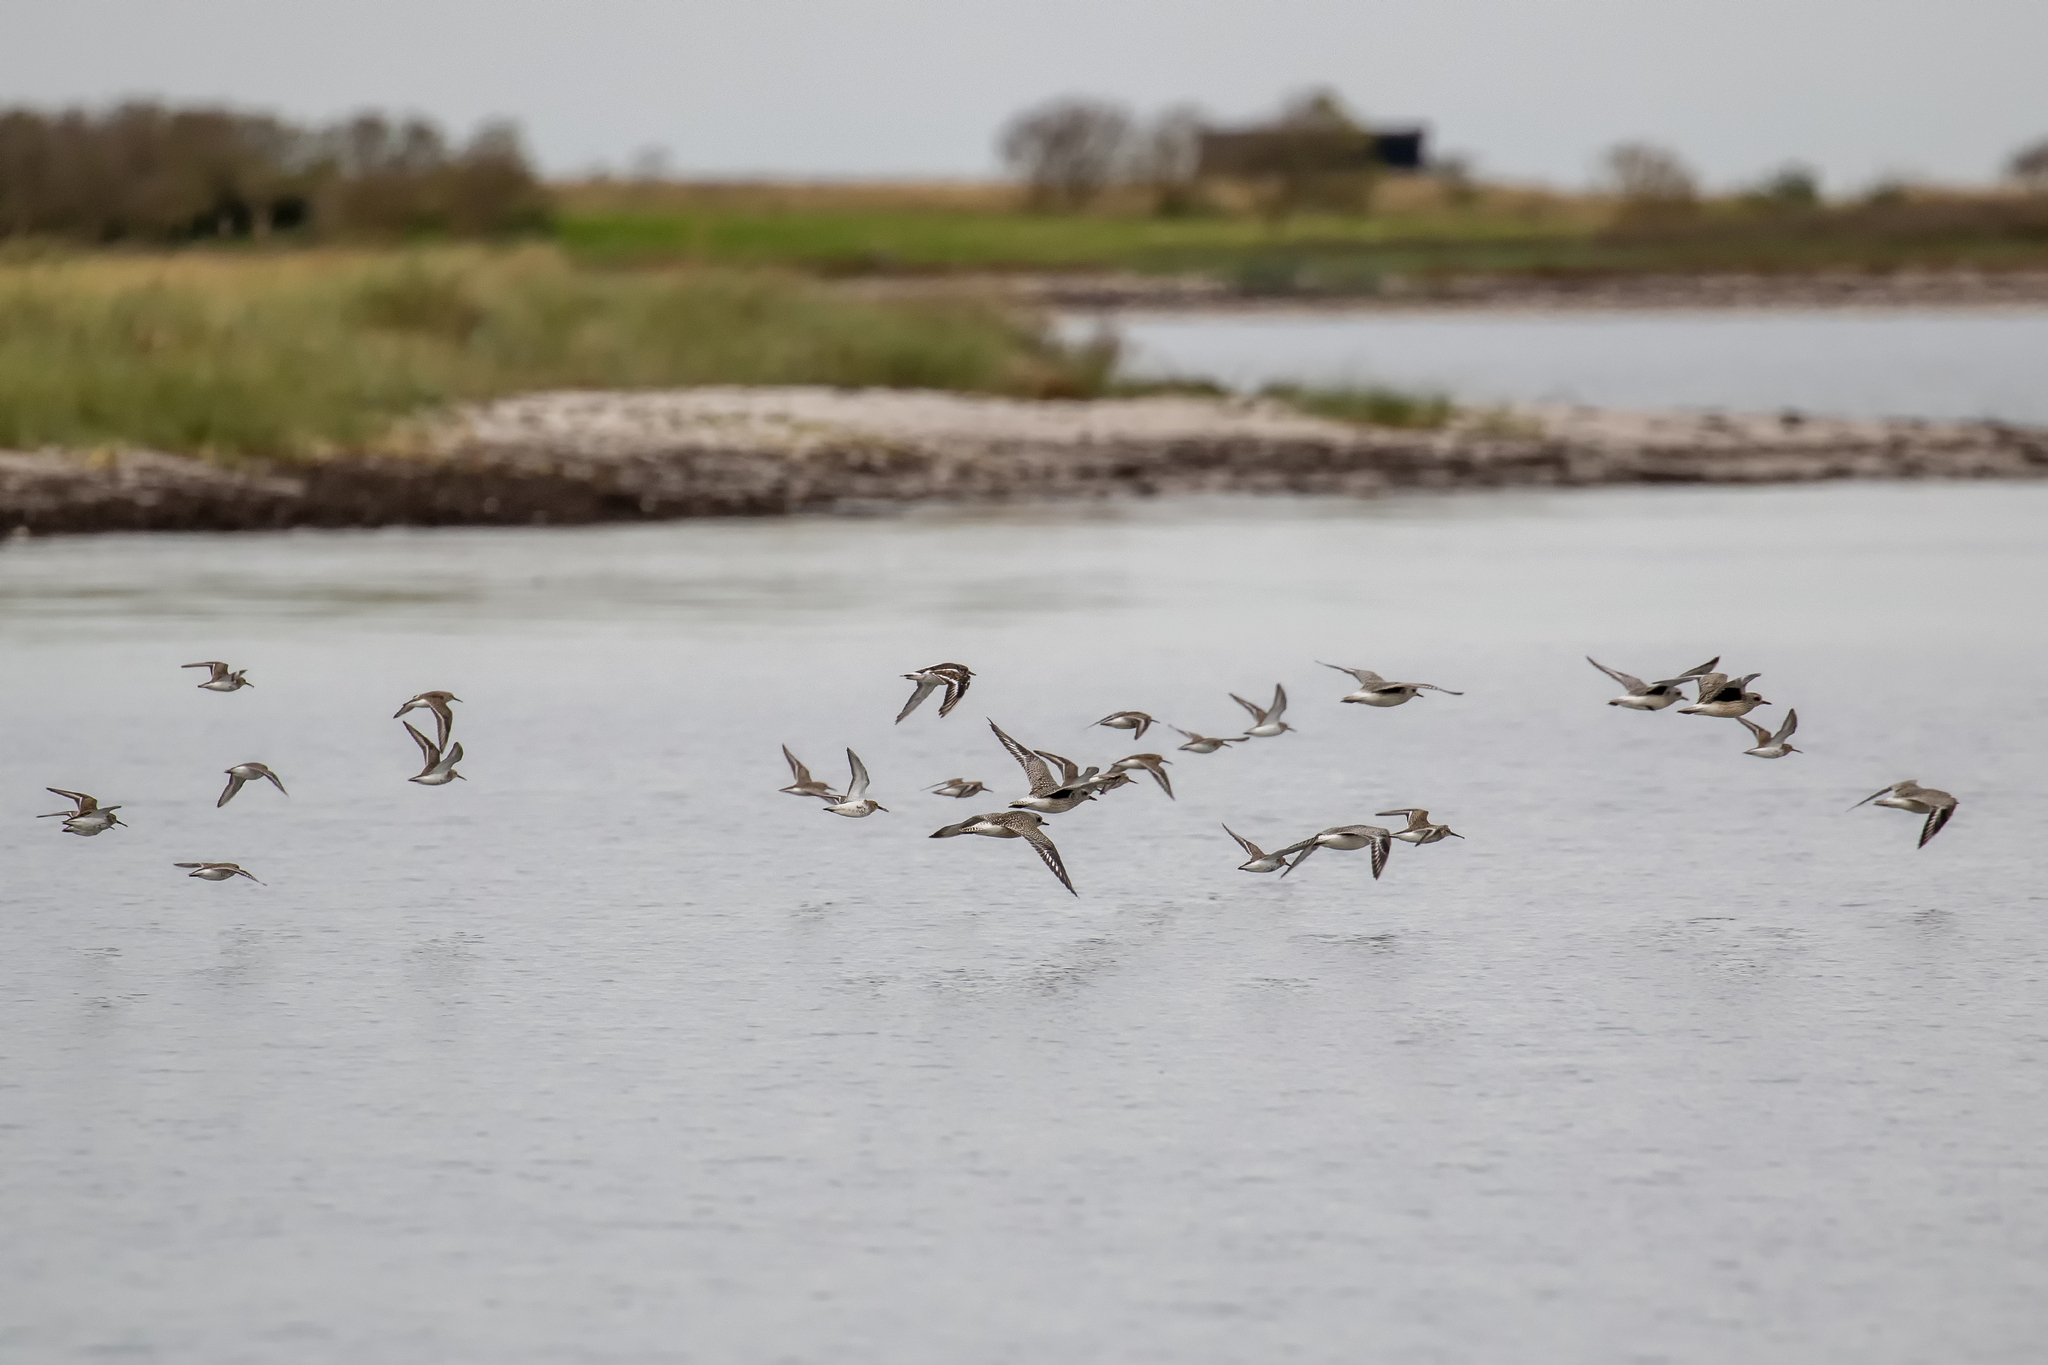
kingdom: Animalia
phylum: Chordata
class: Aves
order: Charadriiformes
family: Scolopacidae
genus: Arenaria
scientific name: Arenaria interpres
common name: Ruddy turnstone
